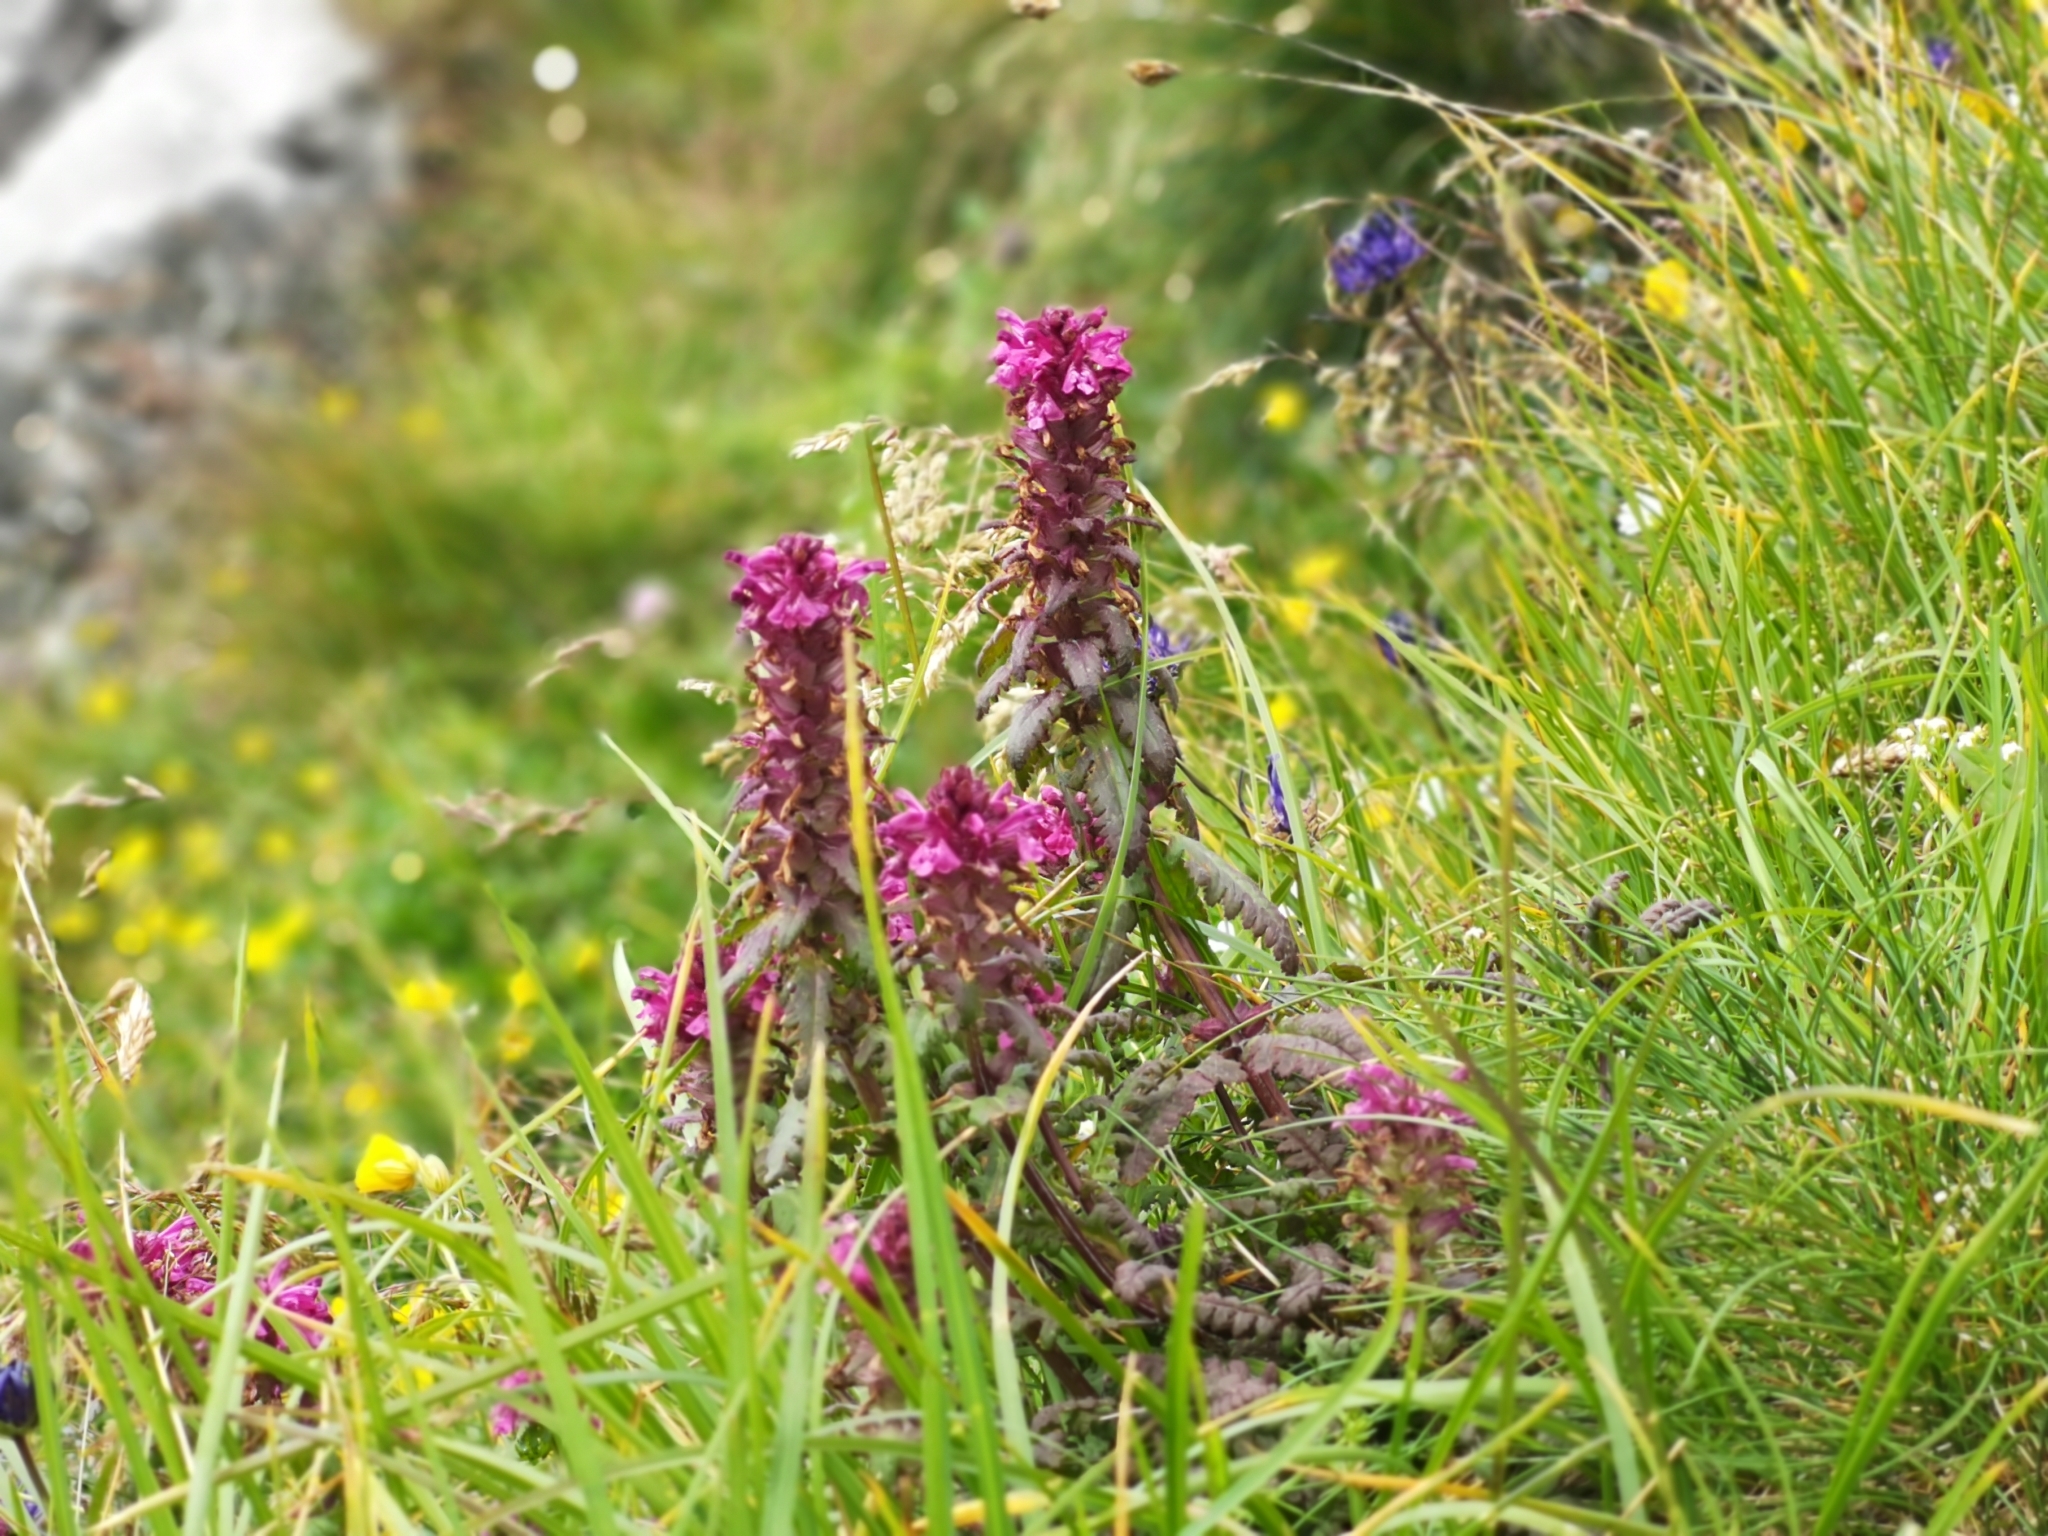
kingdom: Plantae
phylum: Tracheophyta
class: Magnoliopsida
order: Lamiales
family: Orobanchaceae
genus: Pedicularis
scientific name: Pedicularis verticillata
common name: Whorled lousewort
